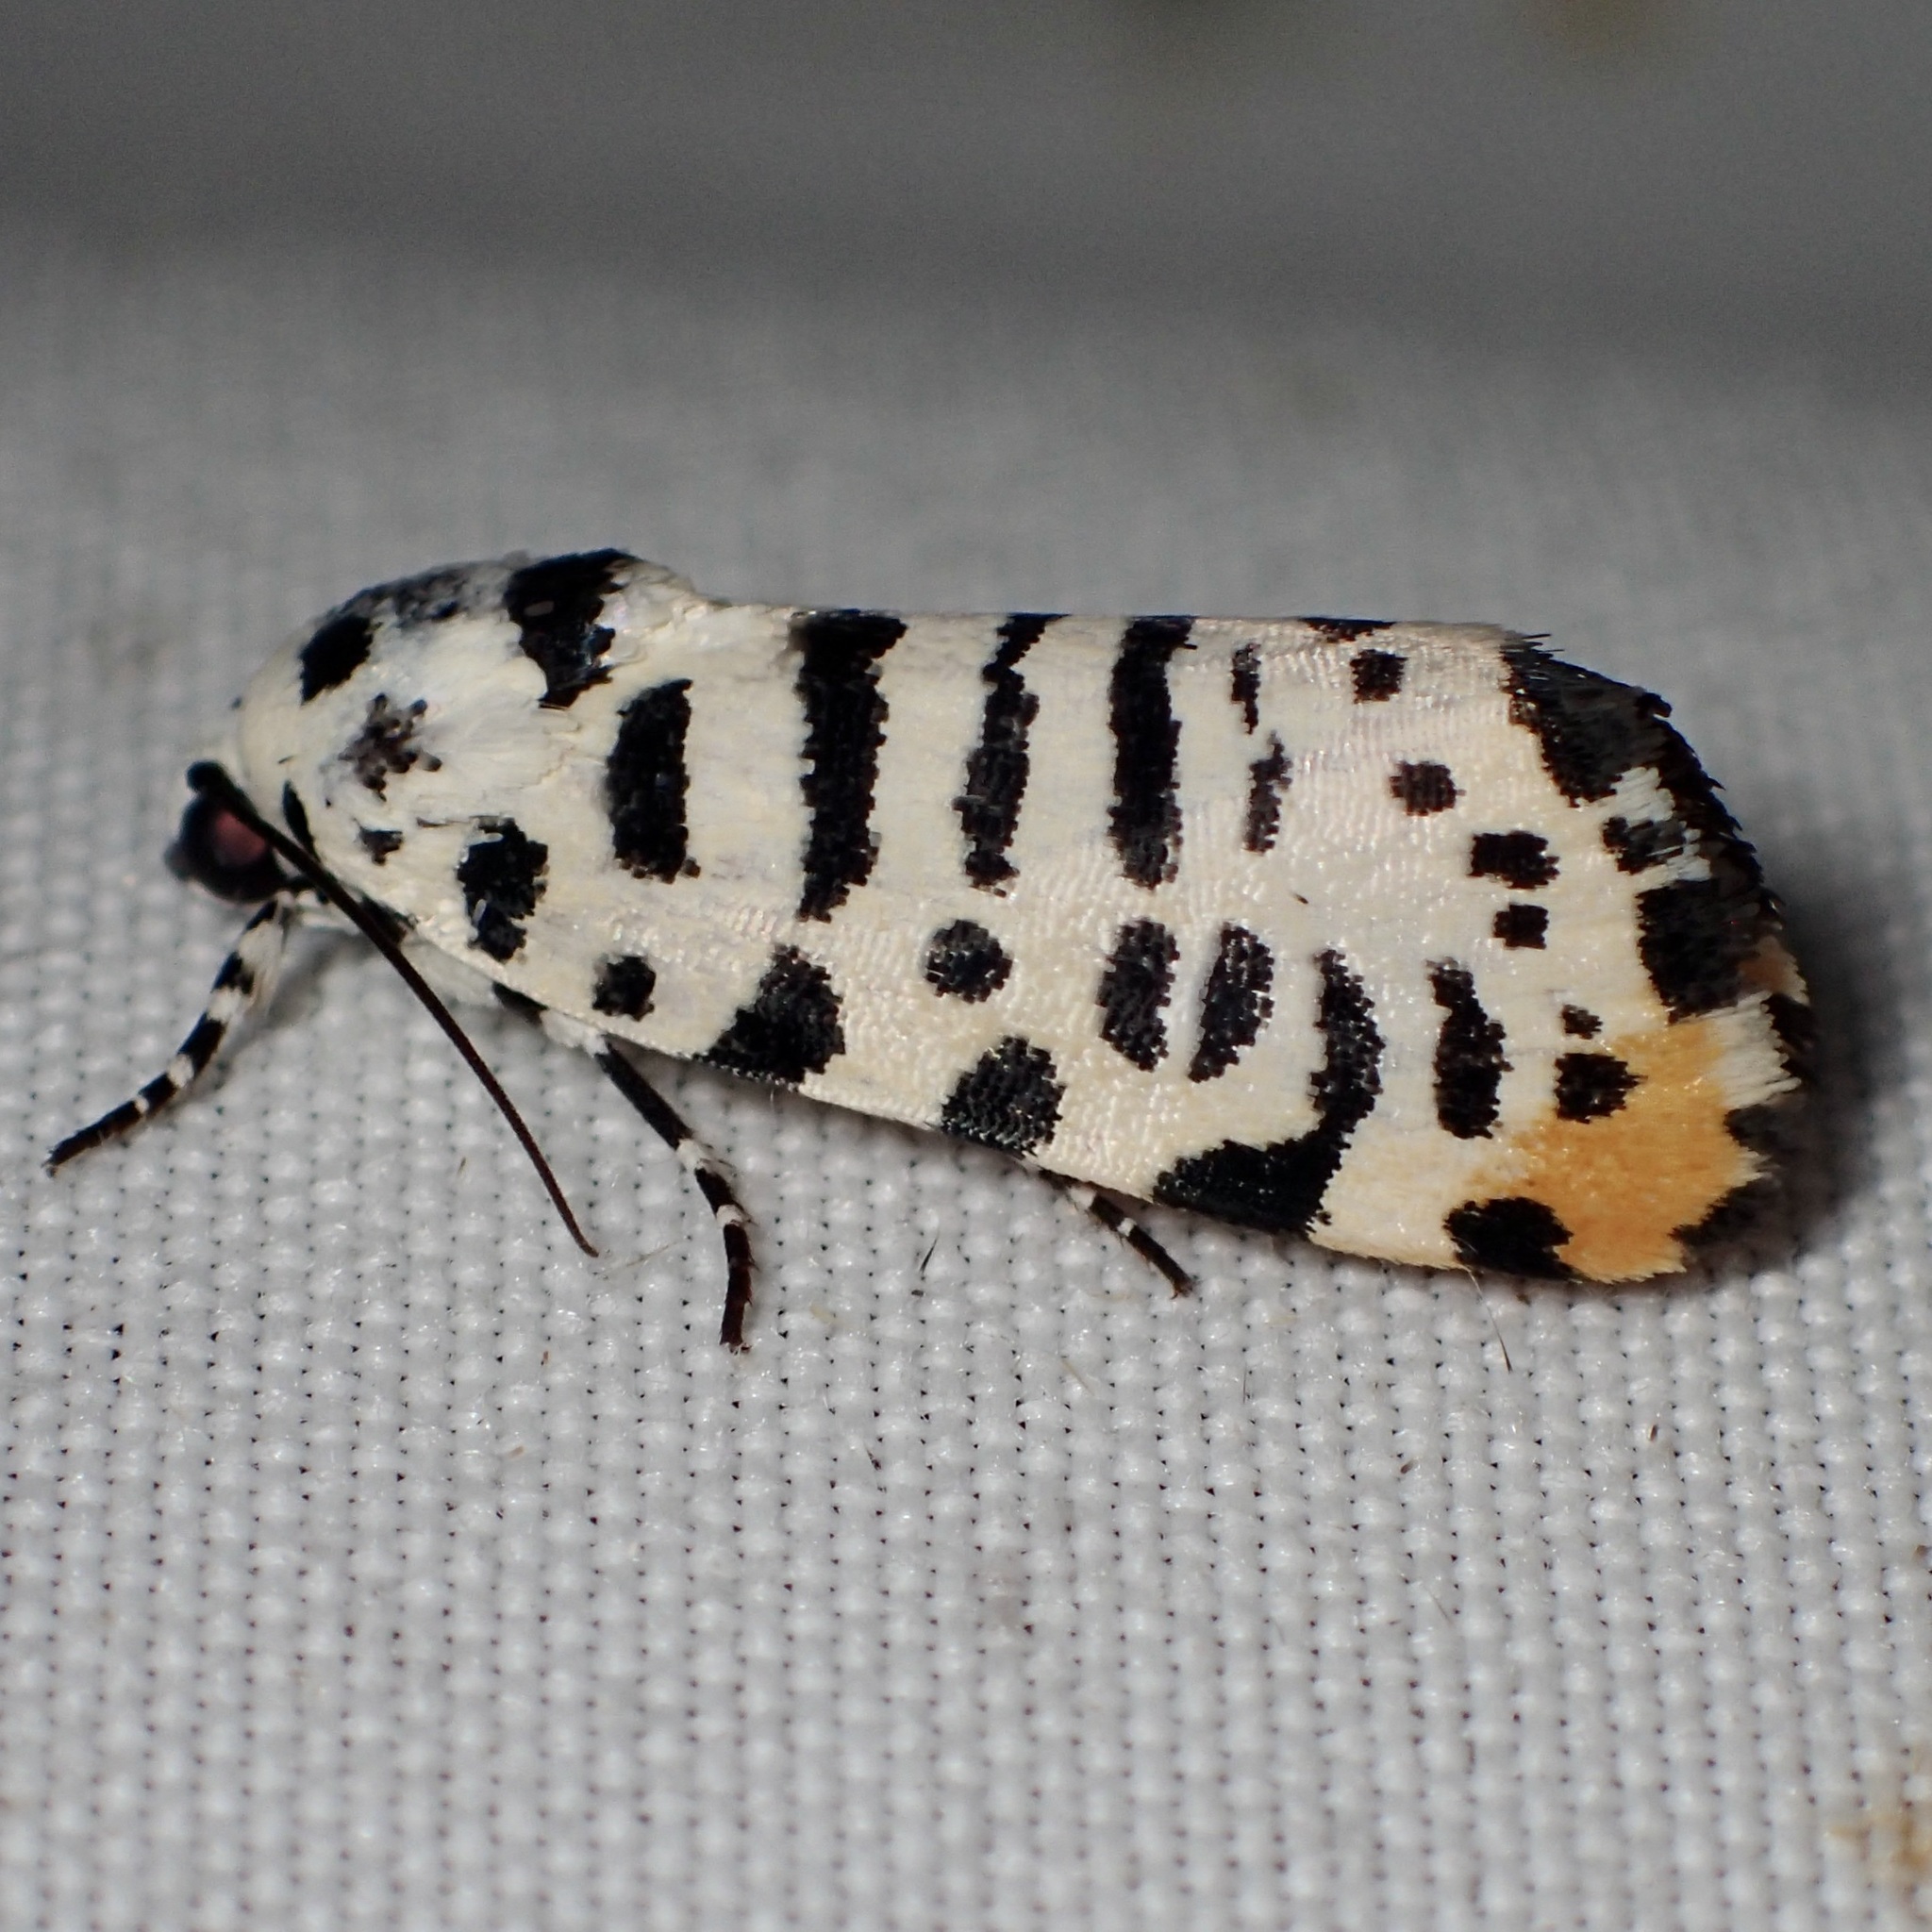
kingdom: Animalia
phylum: Arthropoda
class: Insecta
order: Lepidoptera
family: Noctuidae
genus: Acontia
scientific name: Acontia idella
